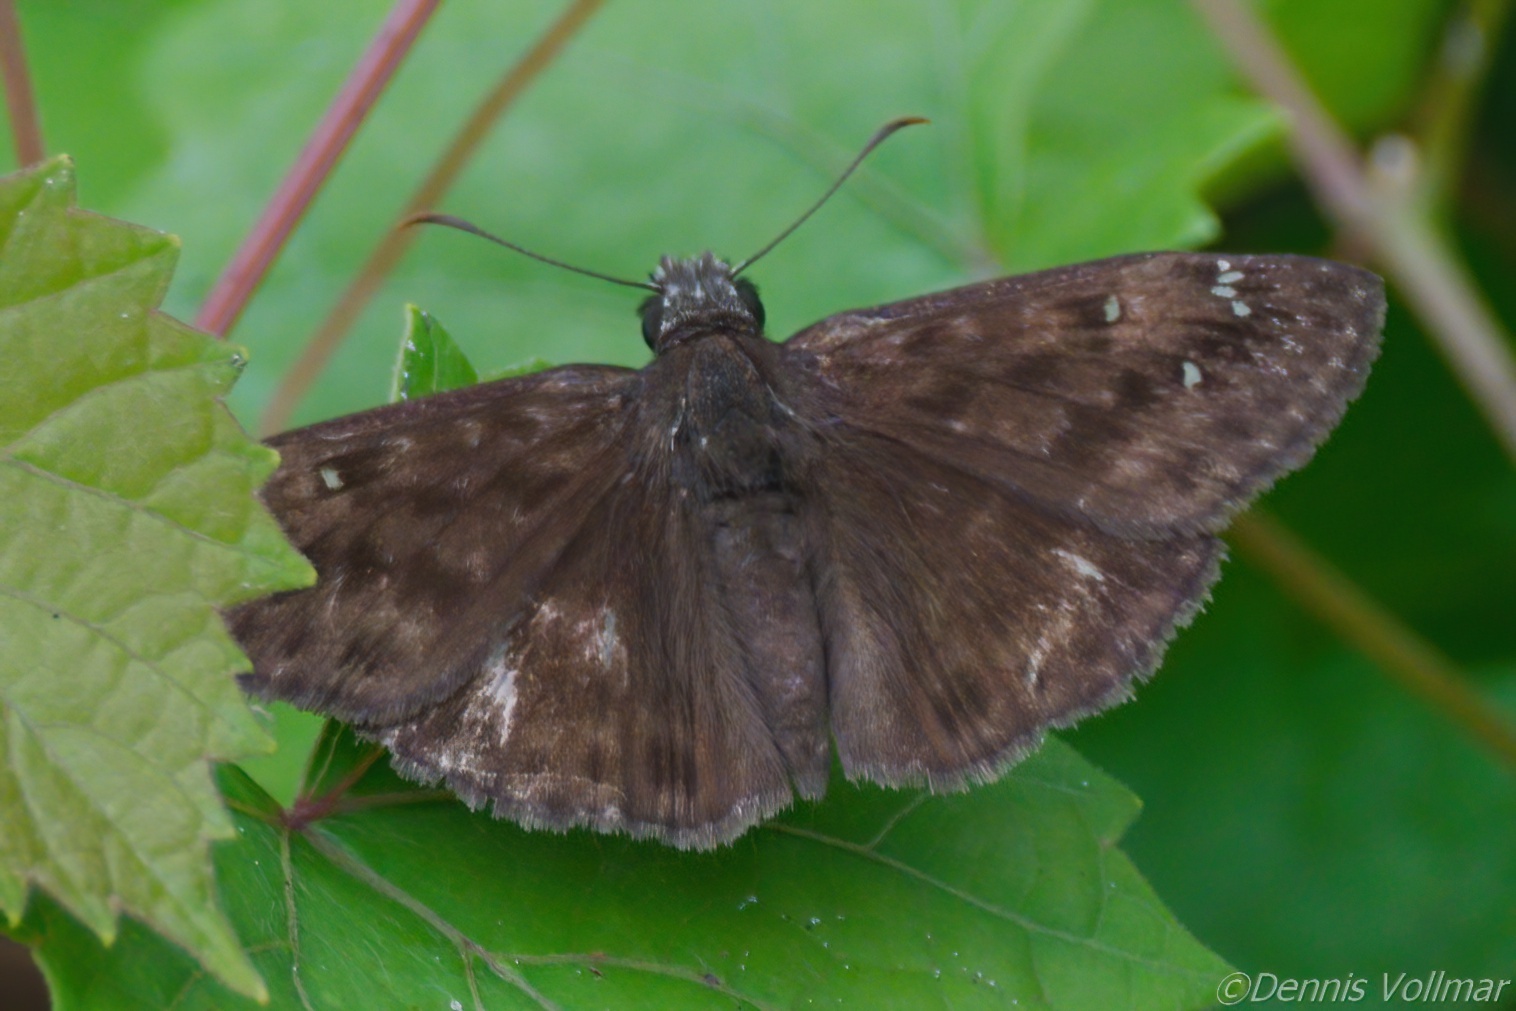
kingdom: Animalia
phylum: Arthropoda
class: Insecta
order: Lepidoptera
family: Hesperiidae
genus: Erynnis
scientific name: Erynnis horatius
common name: Horace's duskywing
